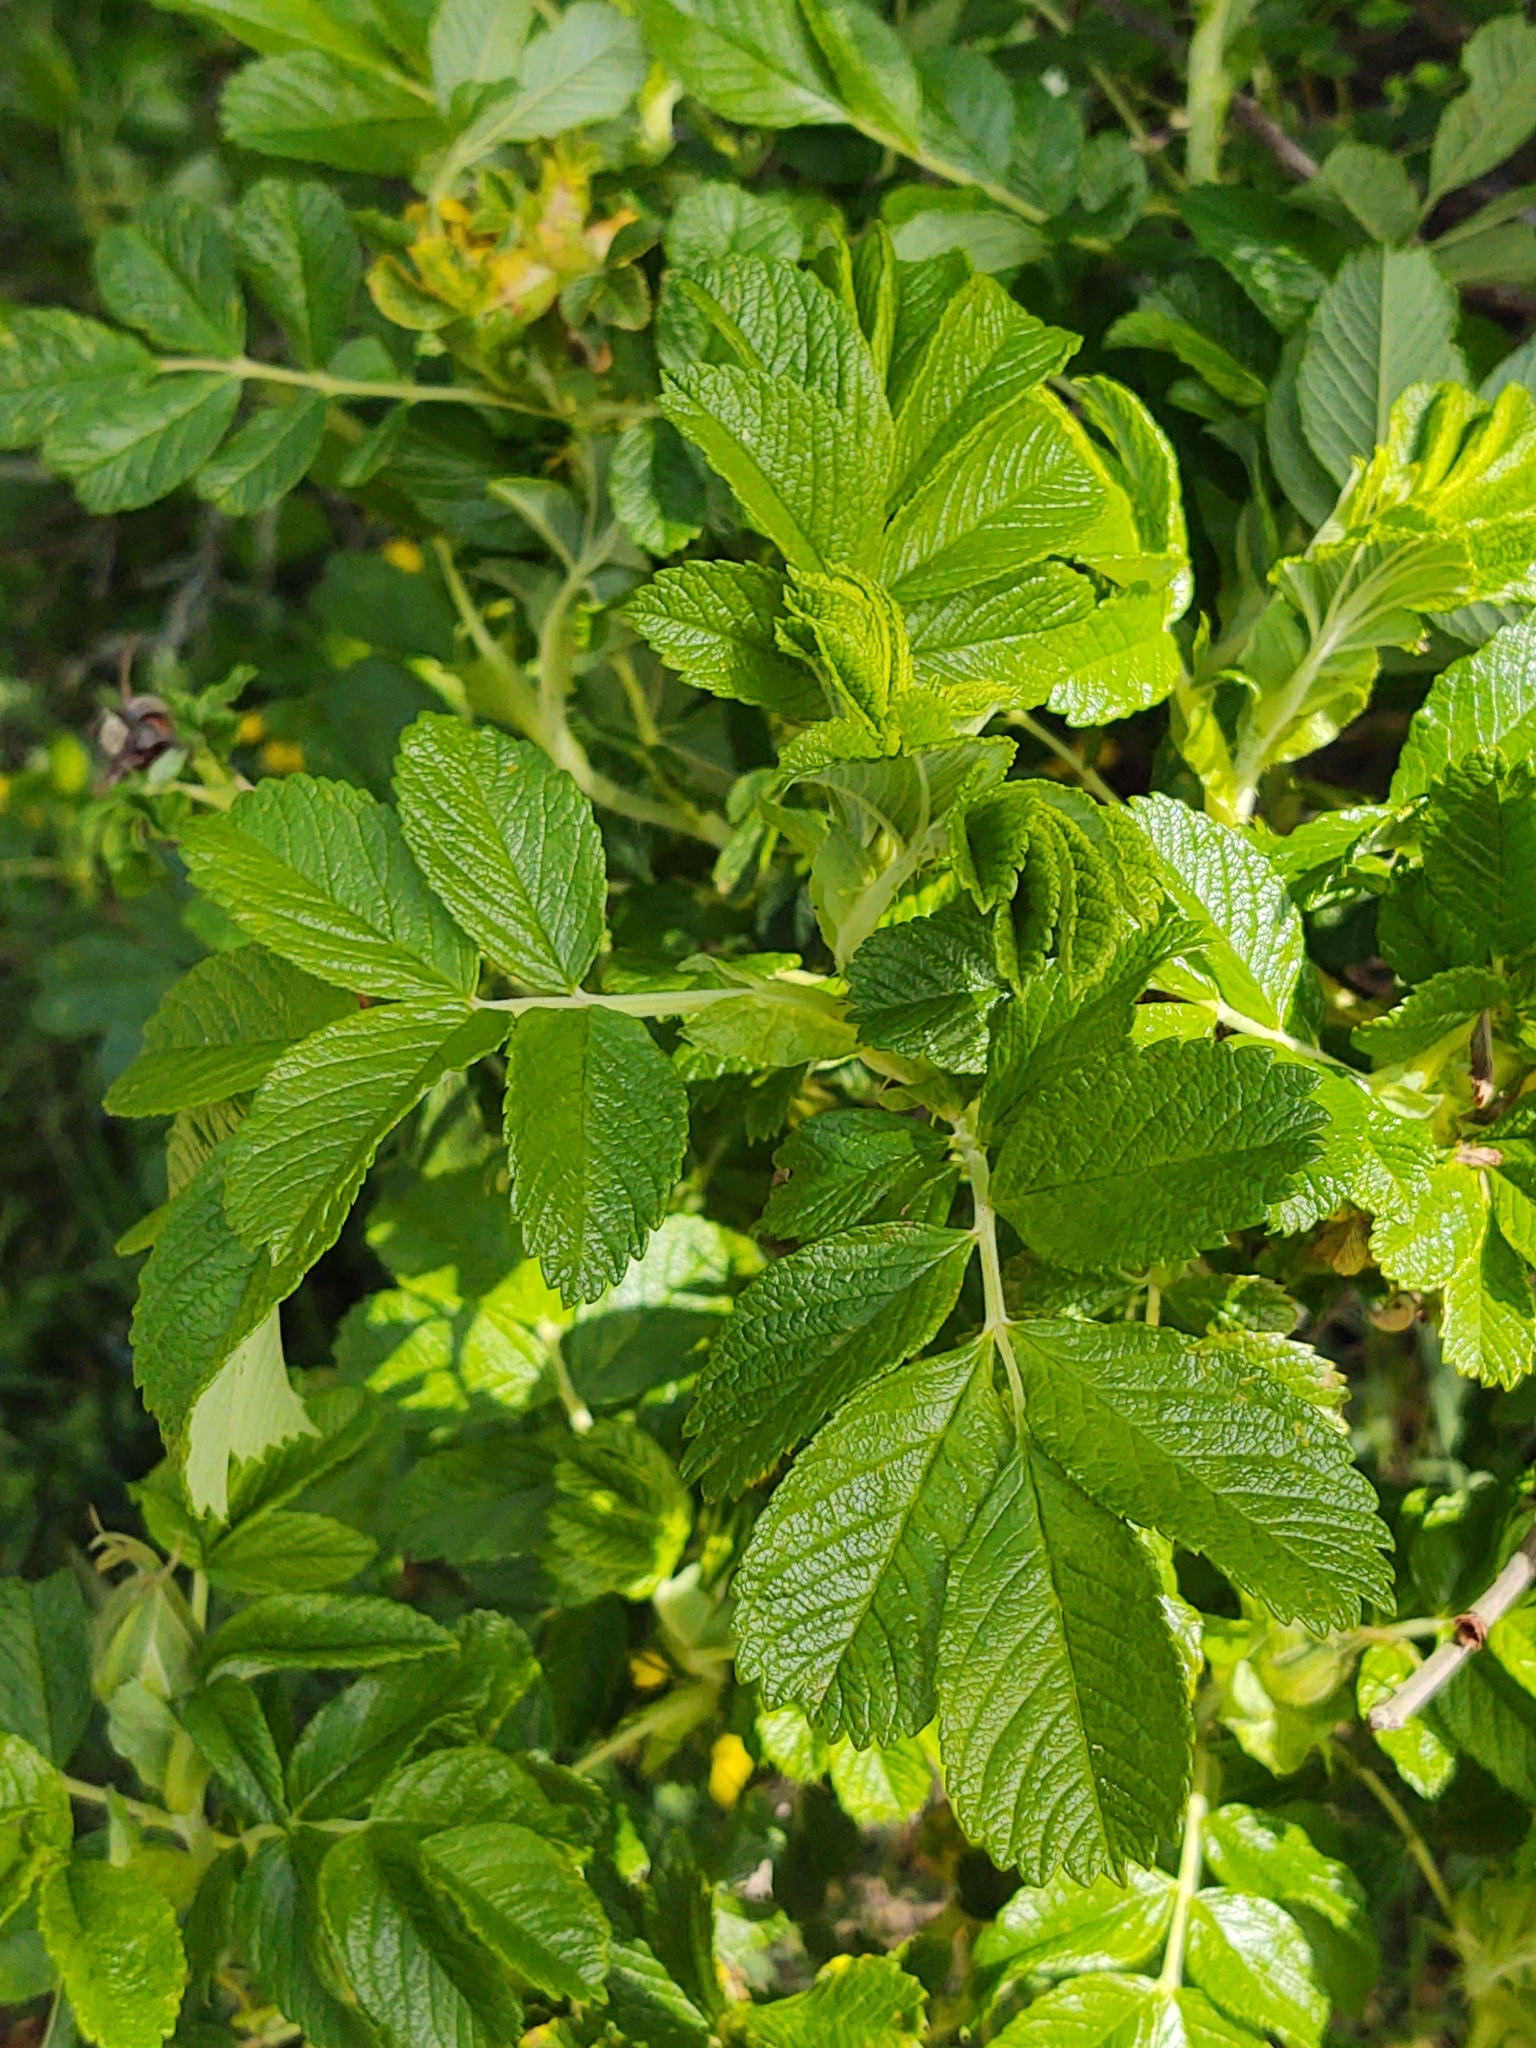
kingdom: Plantae
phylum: Tracheophyta
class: Magnoliopsida
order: Rosales
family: Rosaceae
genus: Rosa
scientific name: Rosa rugosa
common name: Japanese rose
